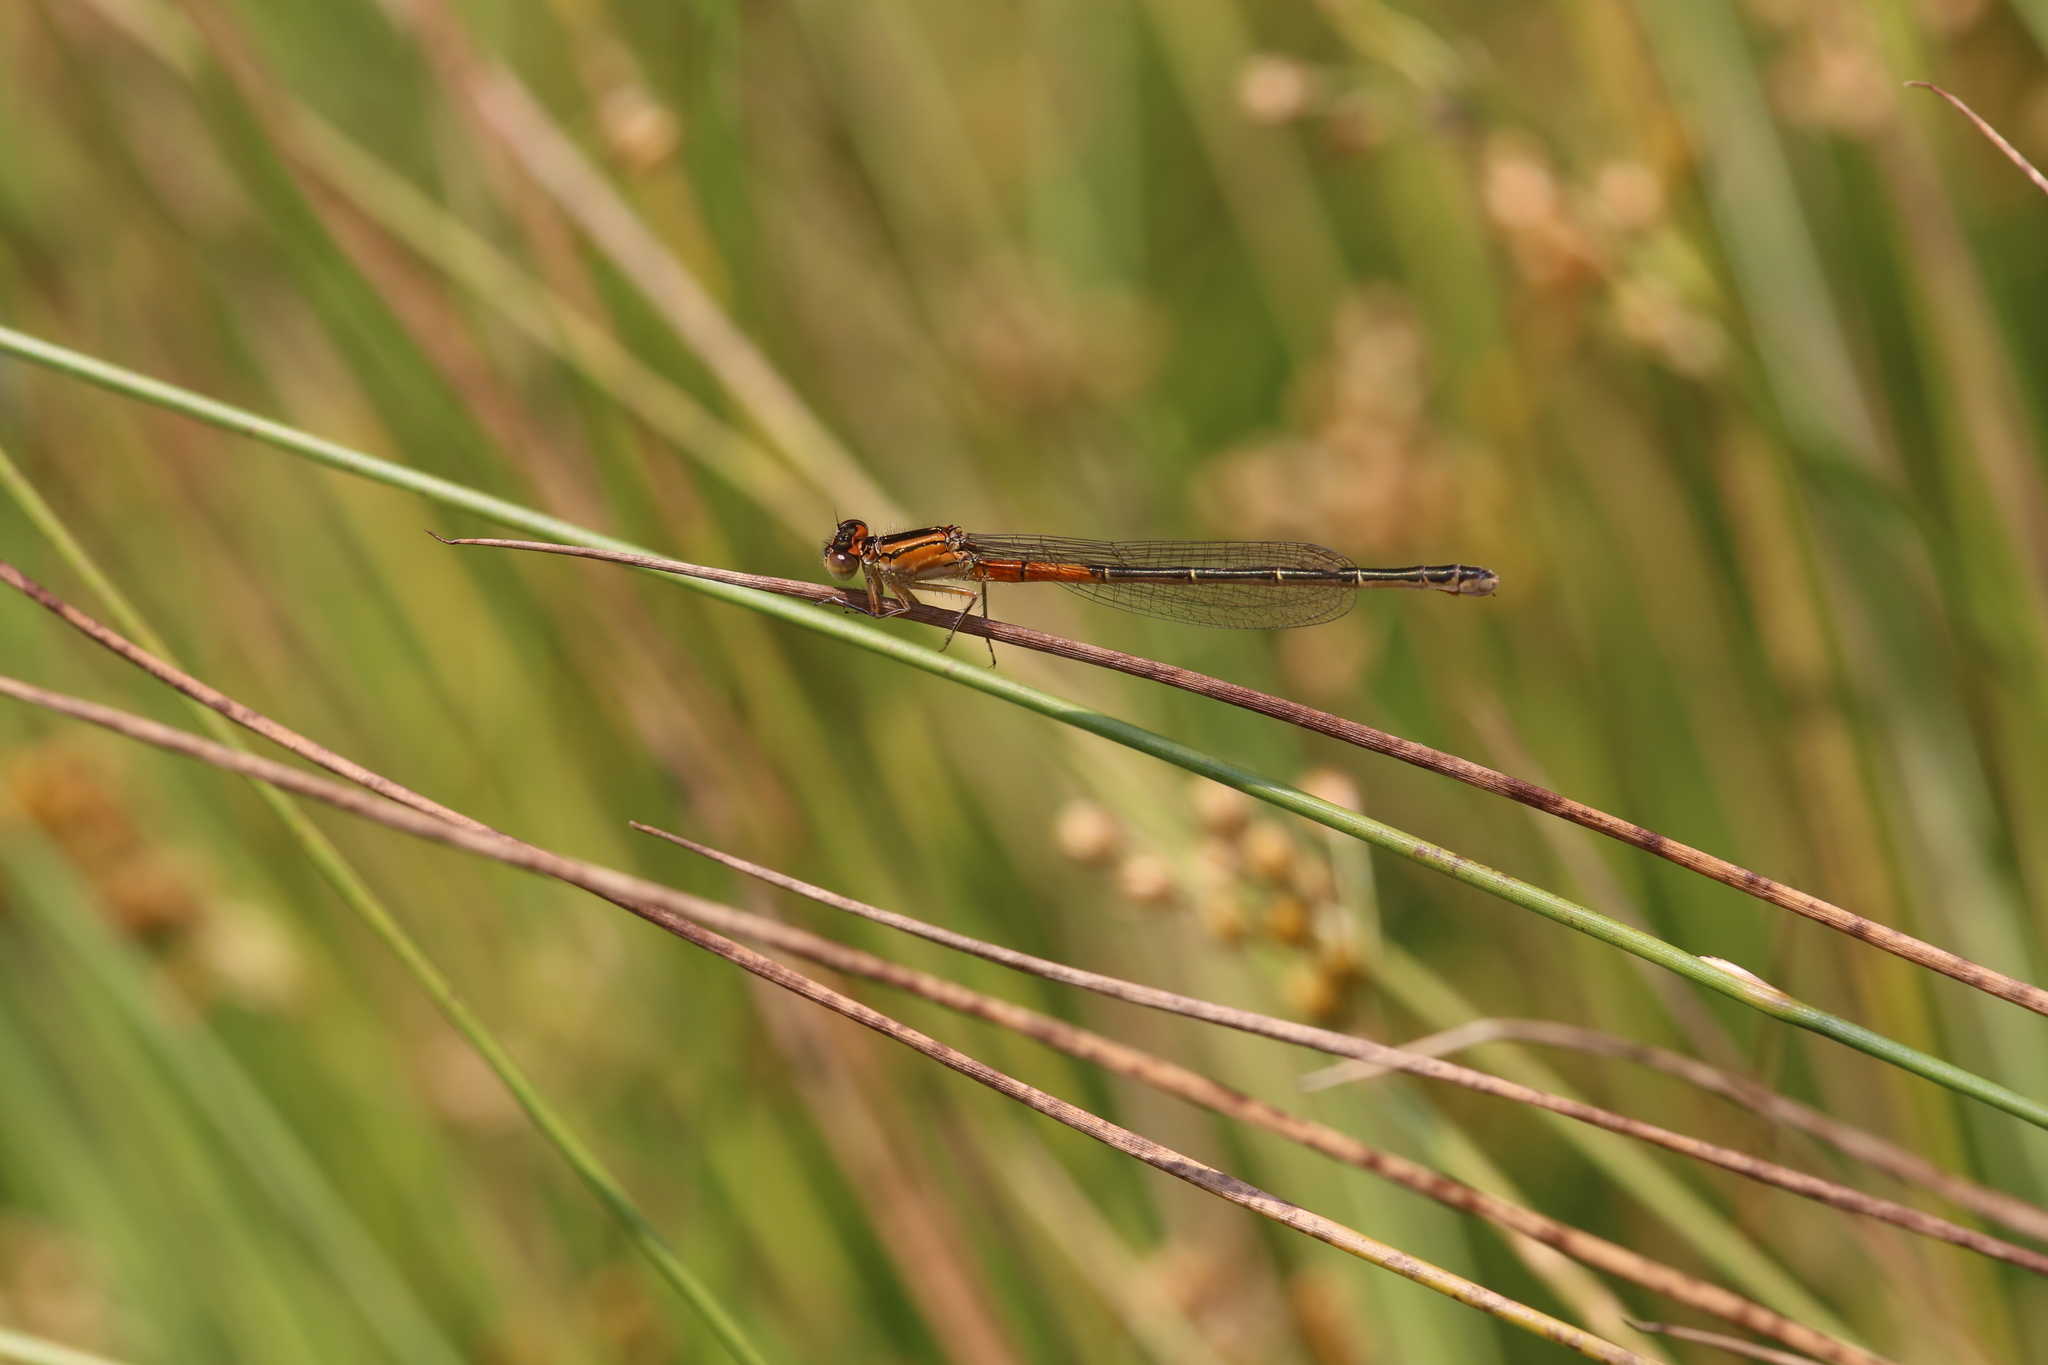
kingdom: Animalia
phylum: Arthropoda
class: Insecta
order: Odonata
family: Coenagrionidae
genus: Ischnura
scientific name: Ischnura verticalis
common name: Eastern forktail
